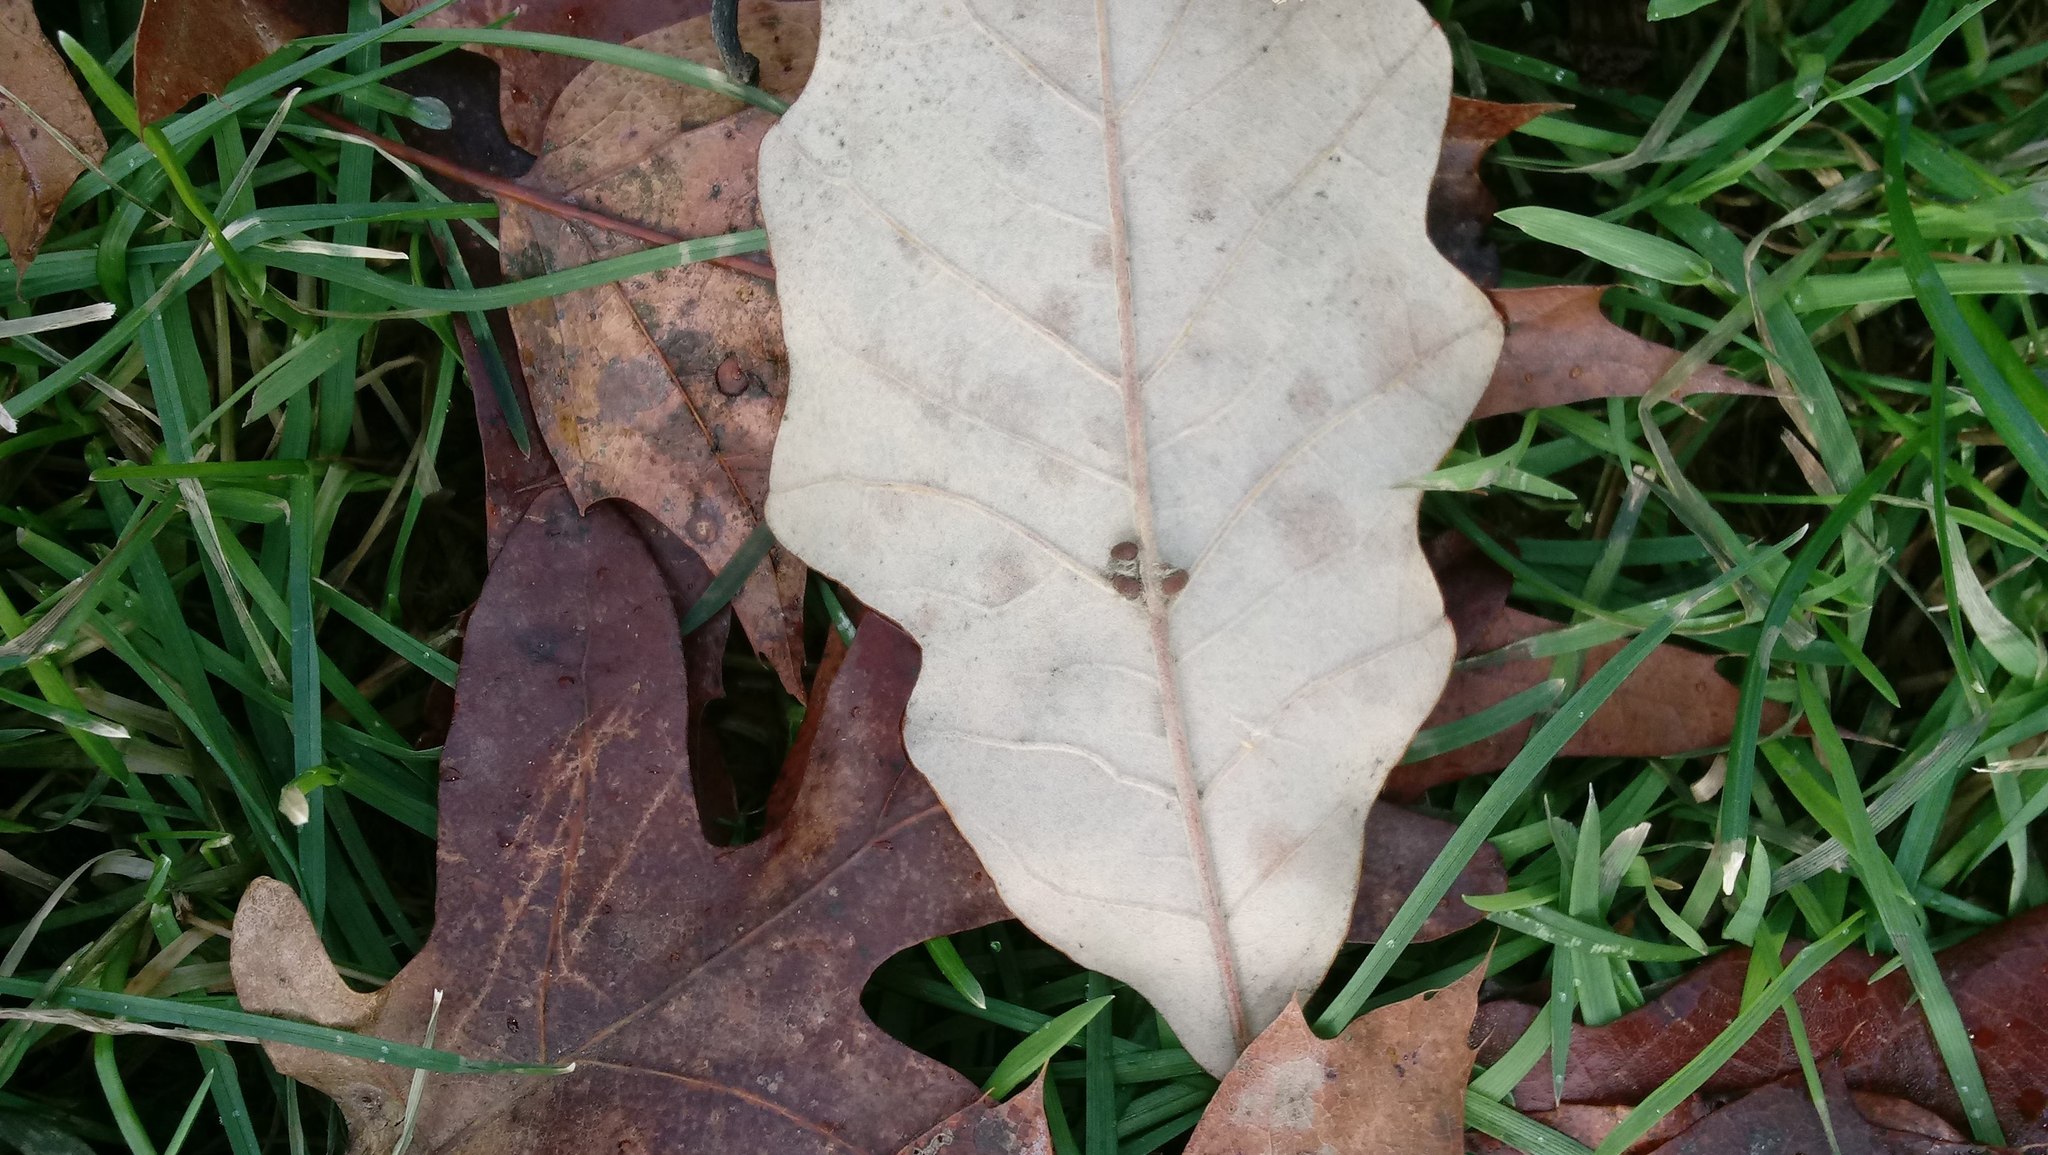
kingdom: Animalia
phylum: Arthropoda
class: Insecta
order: Hymenoptera
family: Cynipidae
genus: Andricus
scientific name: Andricus Druon ignotum
